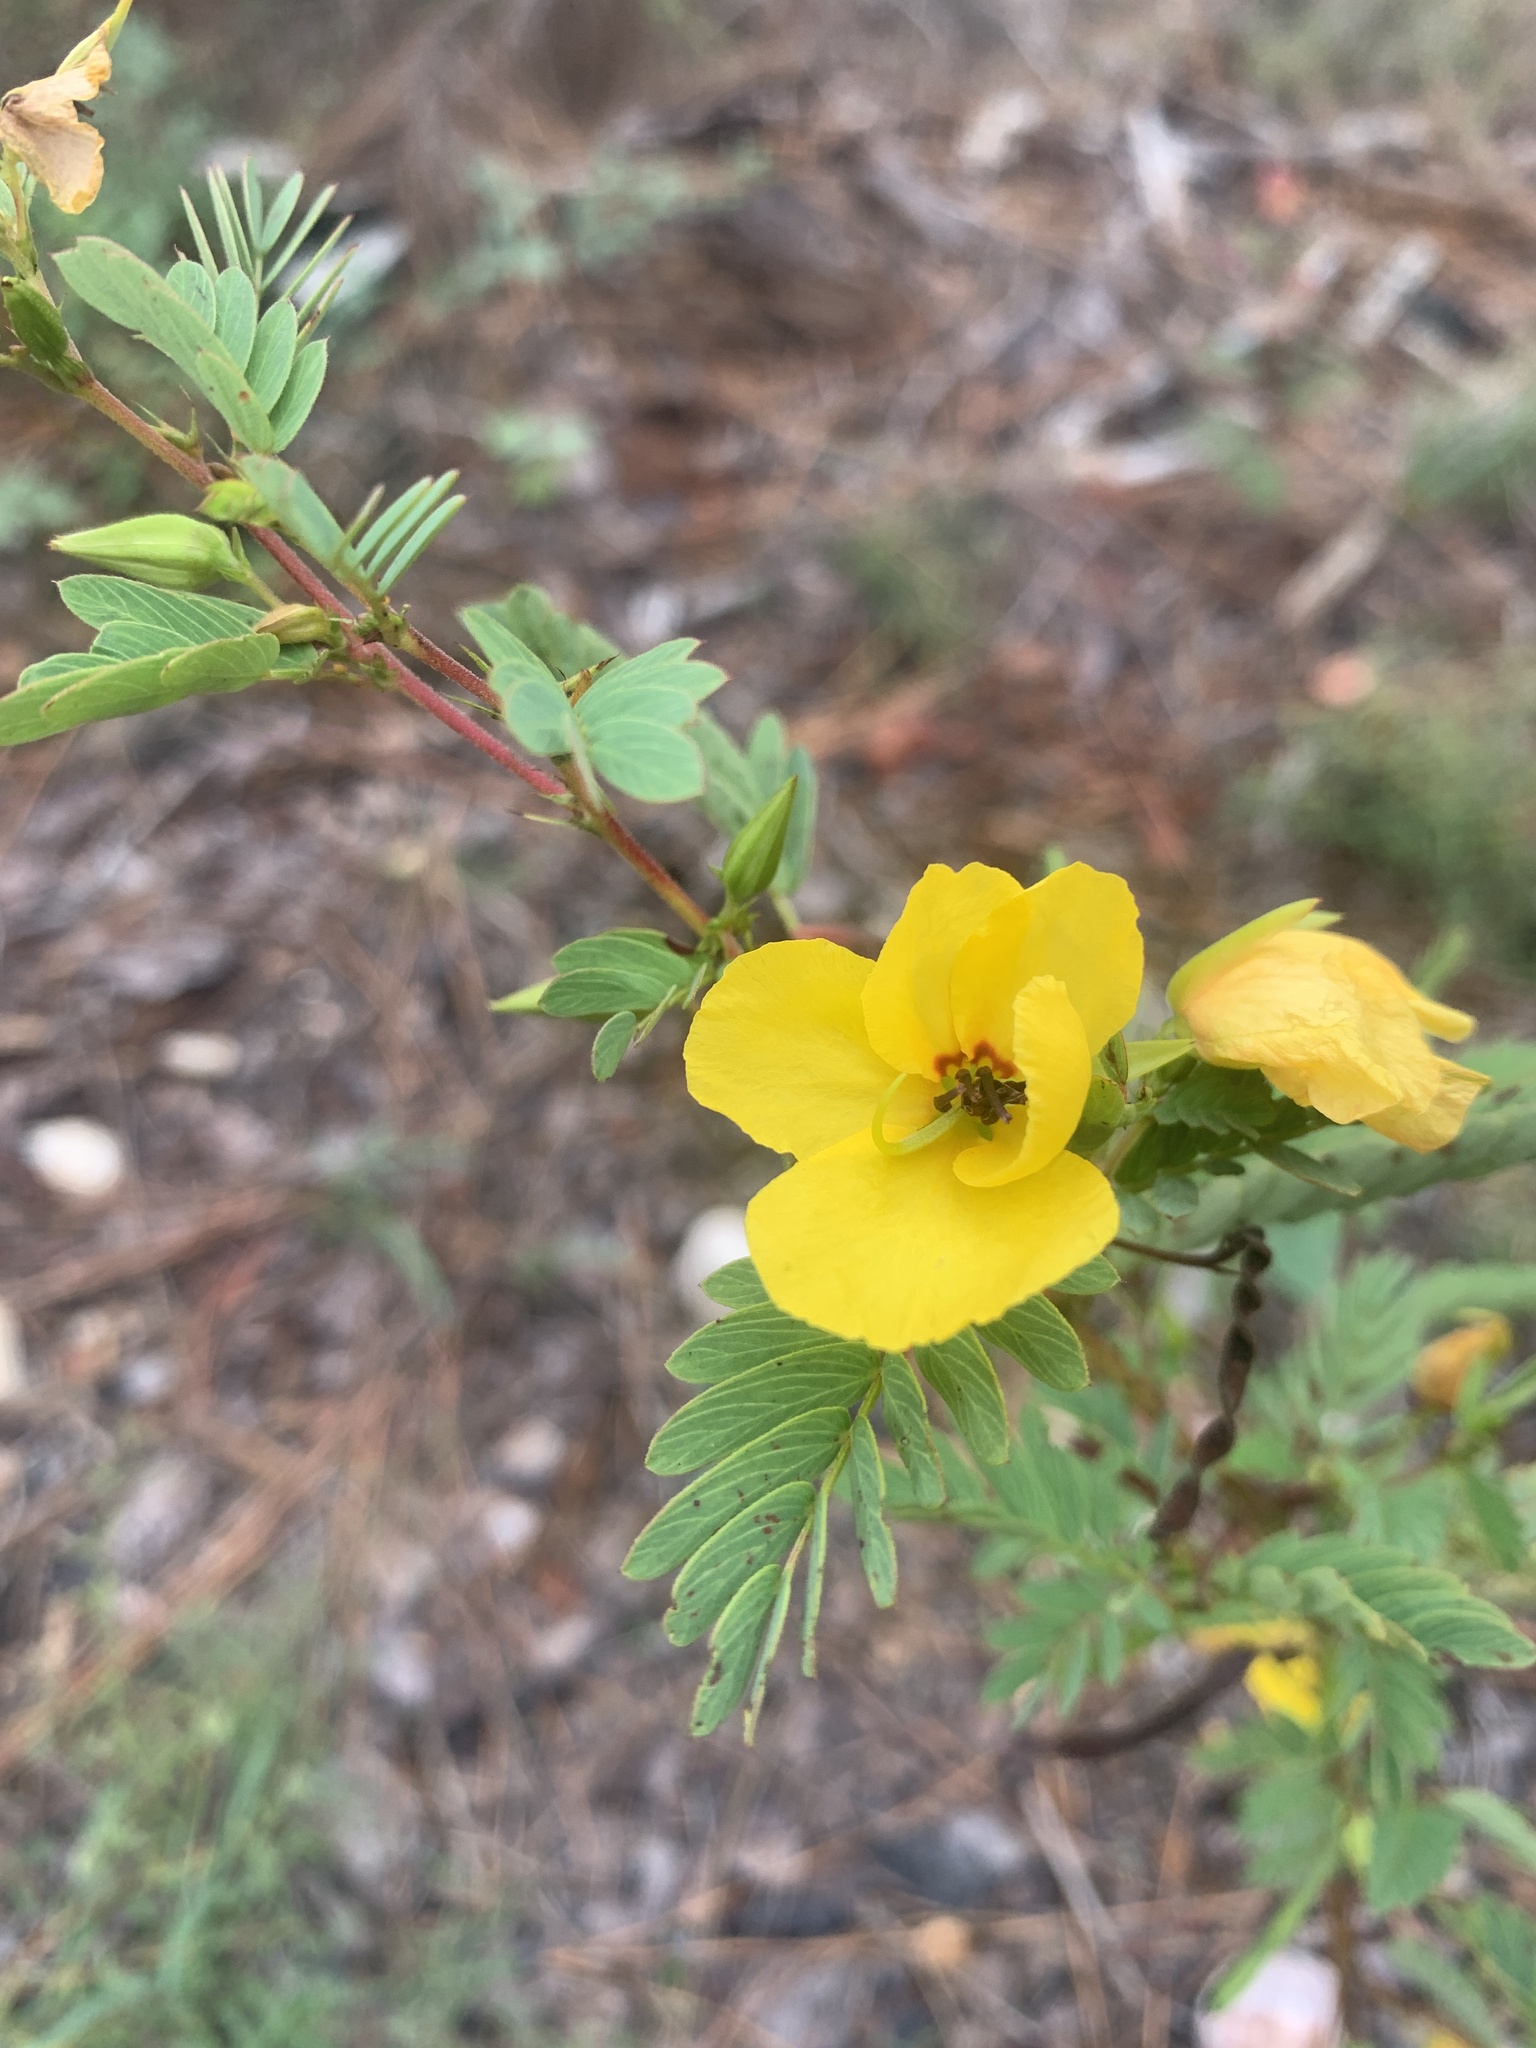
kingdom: Plantae
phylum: Tracheophyta
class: Magnoliopsida
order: Fabales
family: Fabaceae
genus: Chamaecrista
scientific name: Chamaecrista fasciculata
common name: Golden cassia
